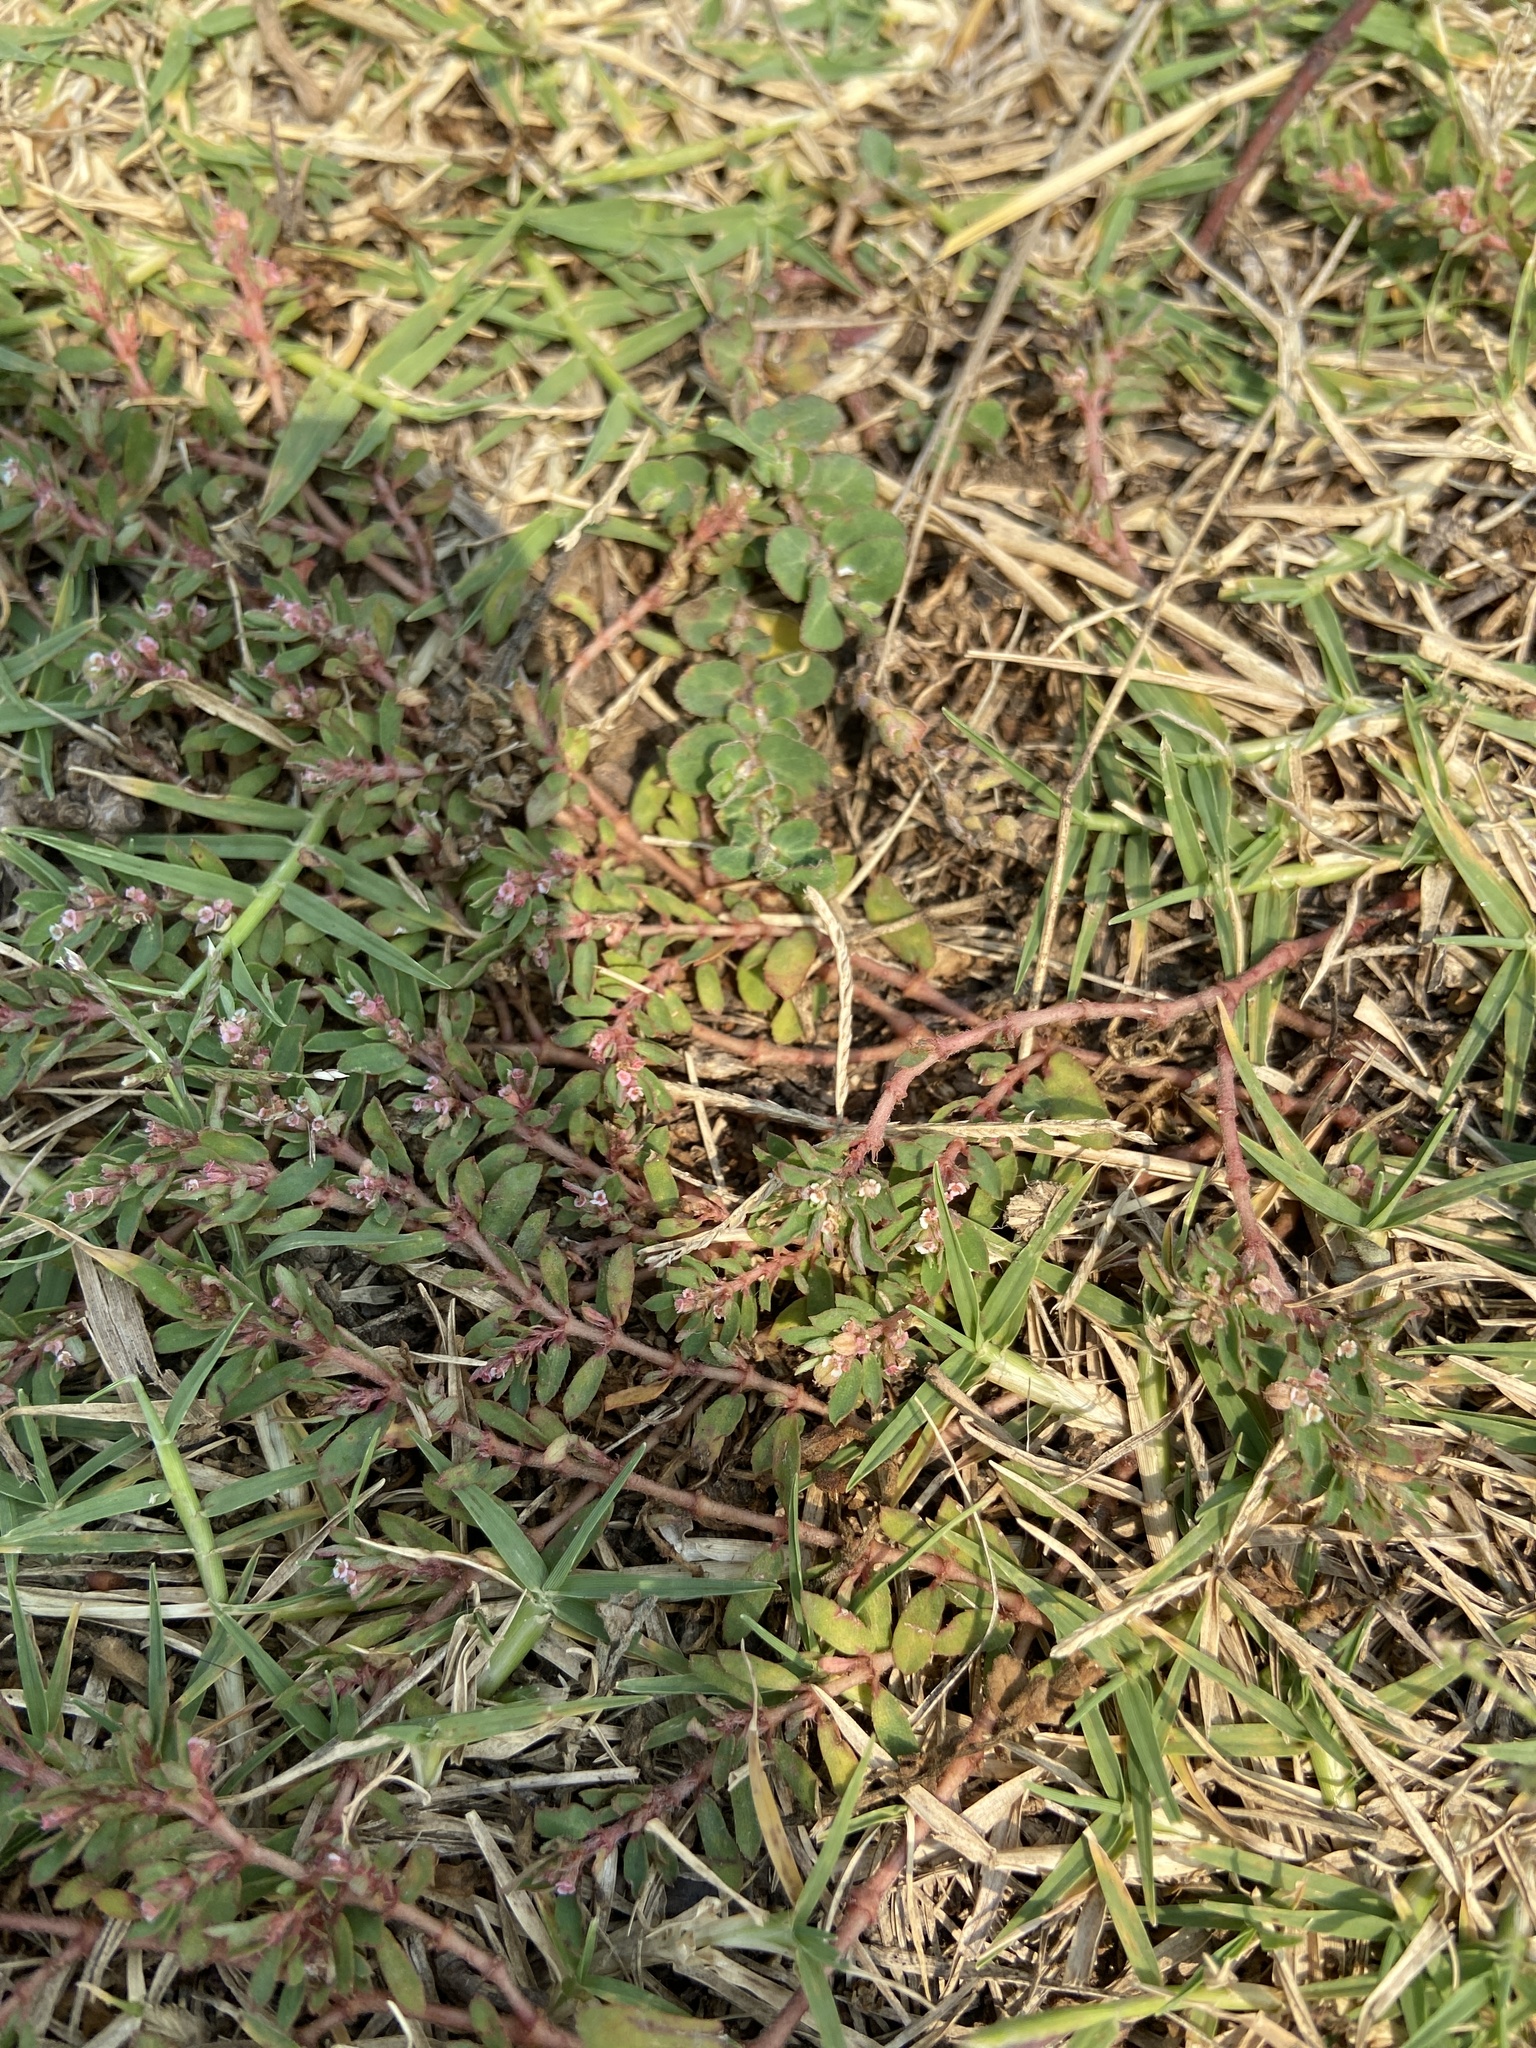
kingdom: Plantae
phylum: Tracheophyta
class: Magnoliopsida
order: Malpighiales
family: Euphorbiaceae
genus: Euphorbia
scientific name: Euphorbia prostrata
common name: Prostrate sandmat
